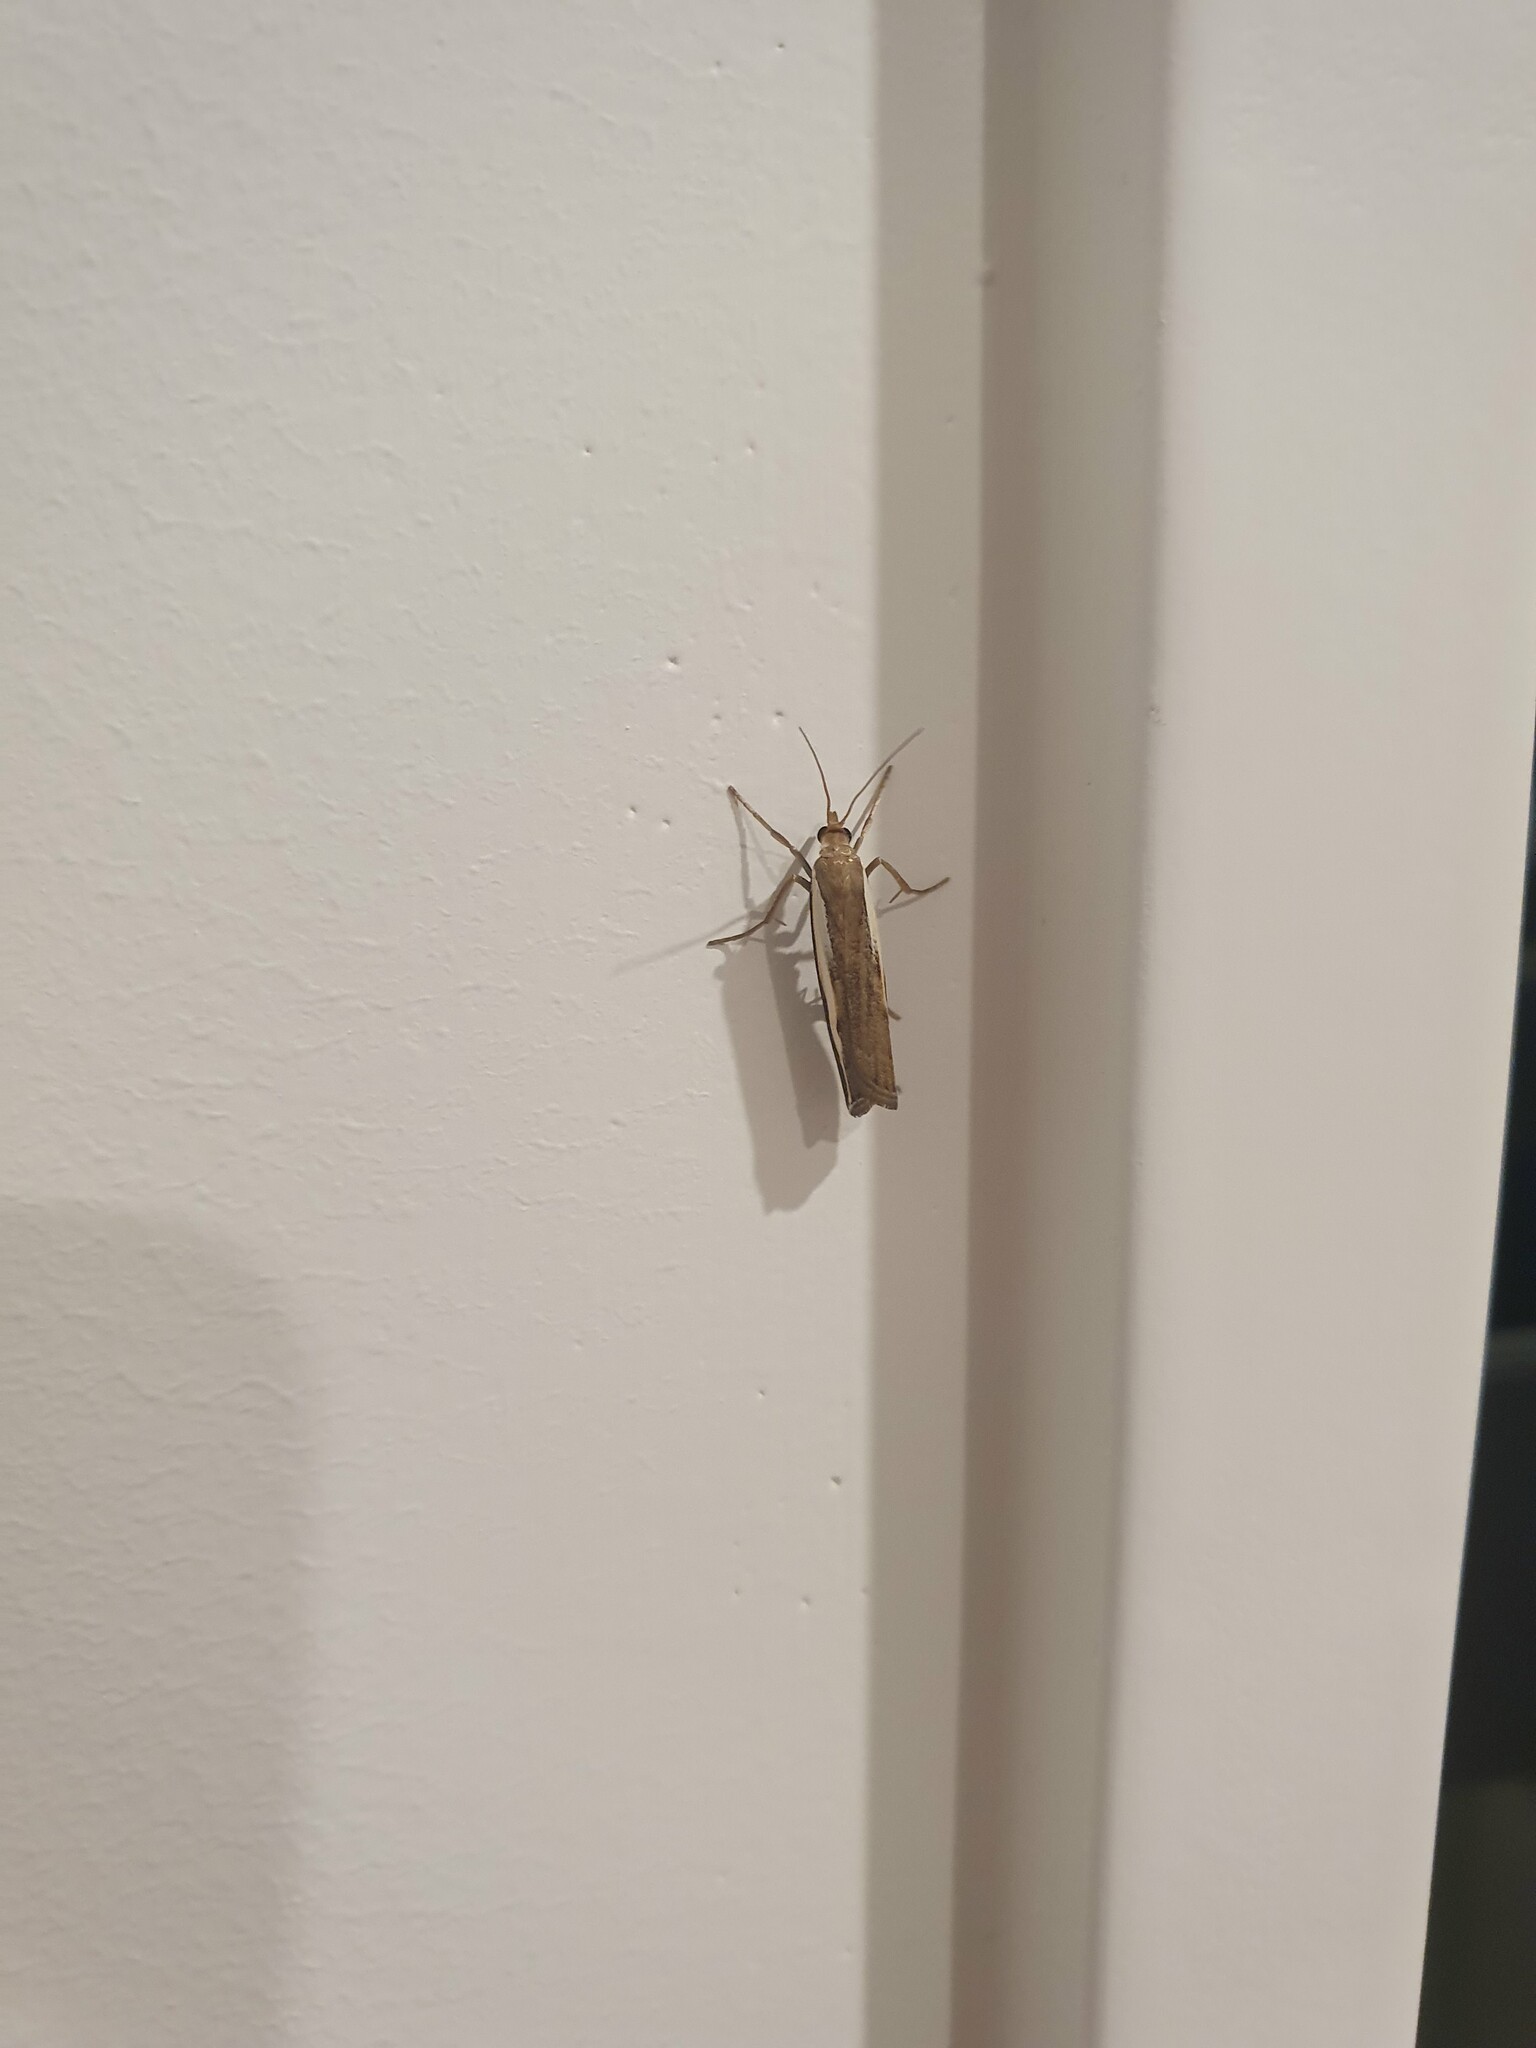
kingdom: Animalia
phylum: Arthropoda
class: Insecta
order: Lepidoptera
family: Crambidae
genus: Orocrambus
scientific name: Orocrambus flexuosellus
